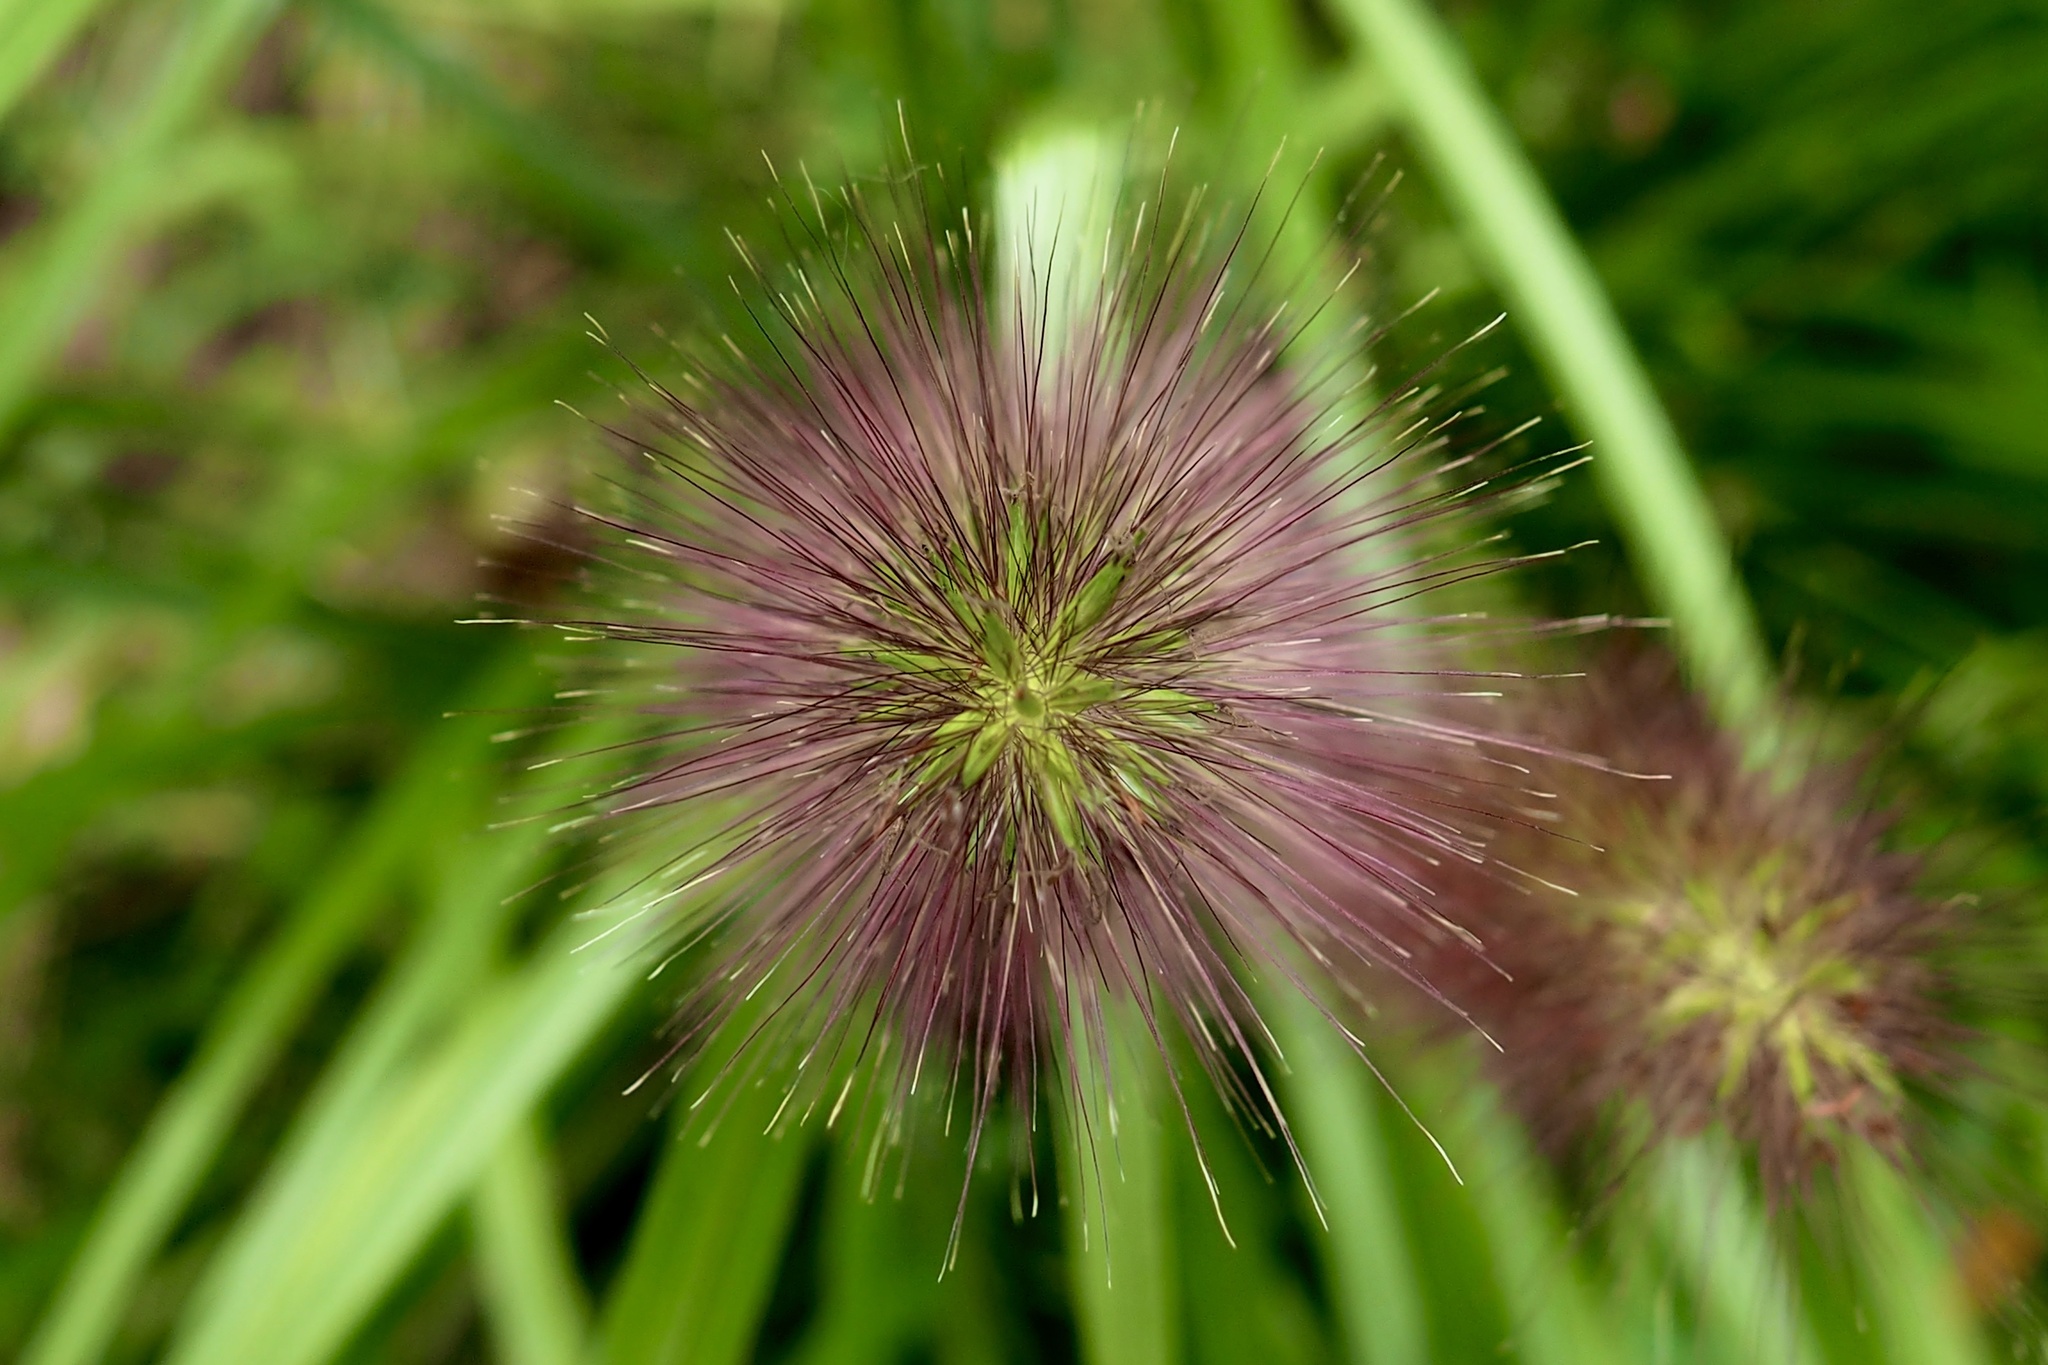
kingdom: Plantae
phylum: Tracheophyta
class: Liliopsida
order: Poales
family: Poaceae
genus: Cenchrus
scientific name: Cenchrus alopecuroides
